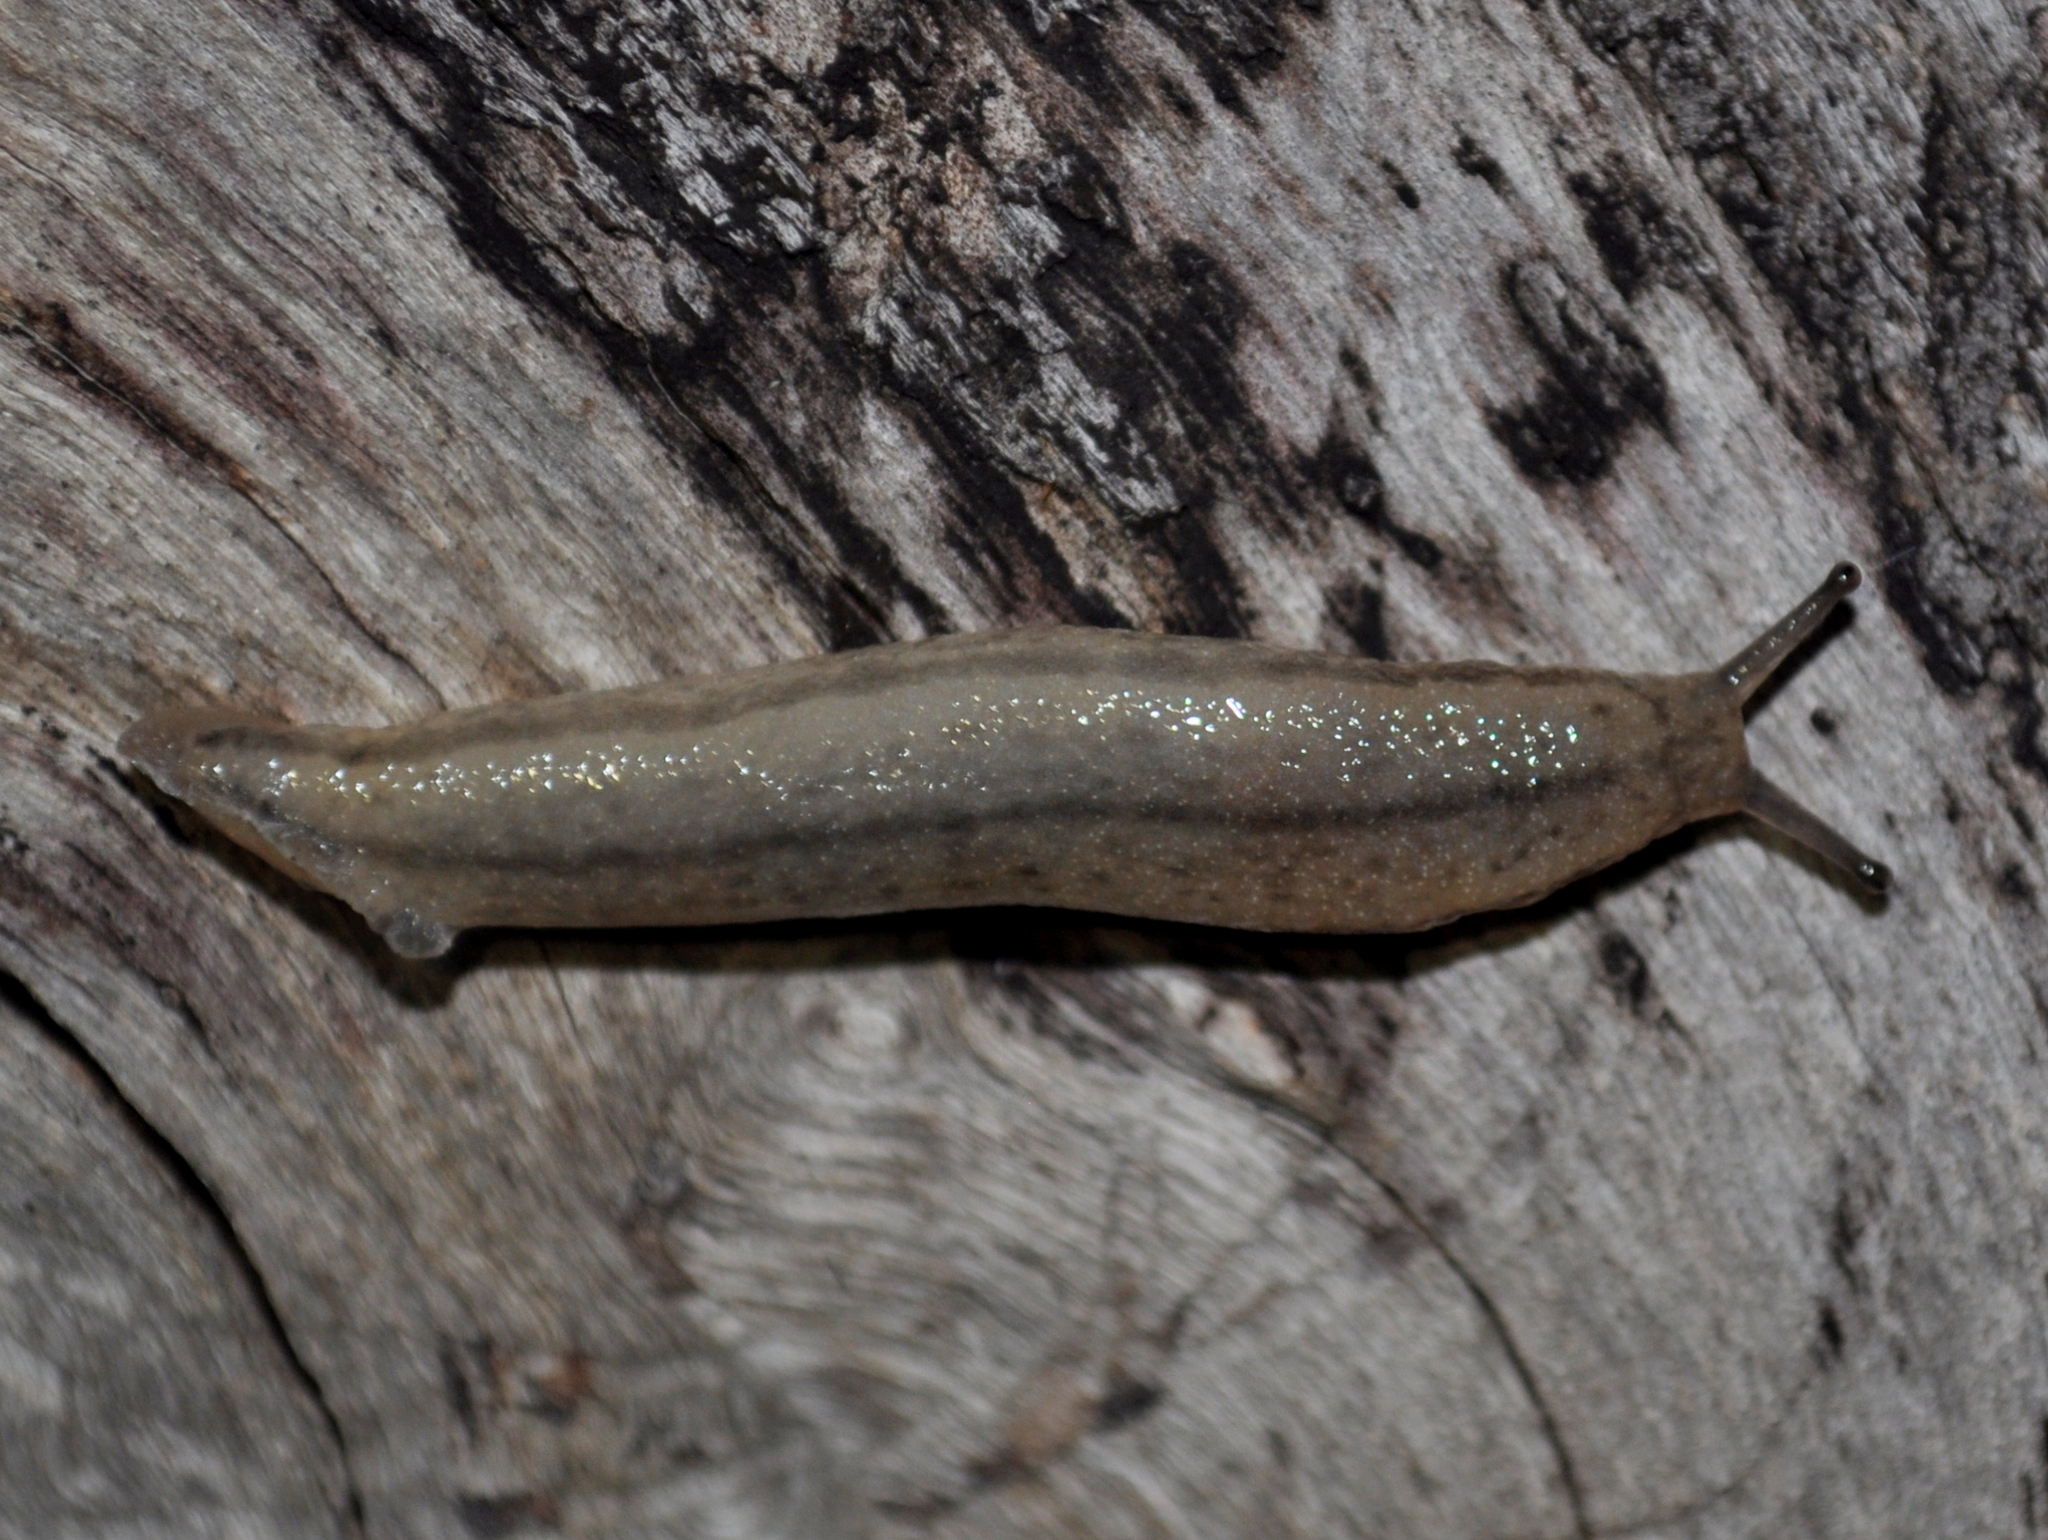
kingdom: Animalia
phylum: Mollusca
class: Gastropoda
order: Stylommatophora
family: Philomycidae
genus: Meghimatium
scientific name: Meghimatium pictum
